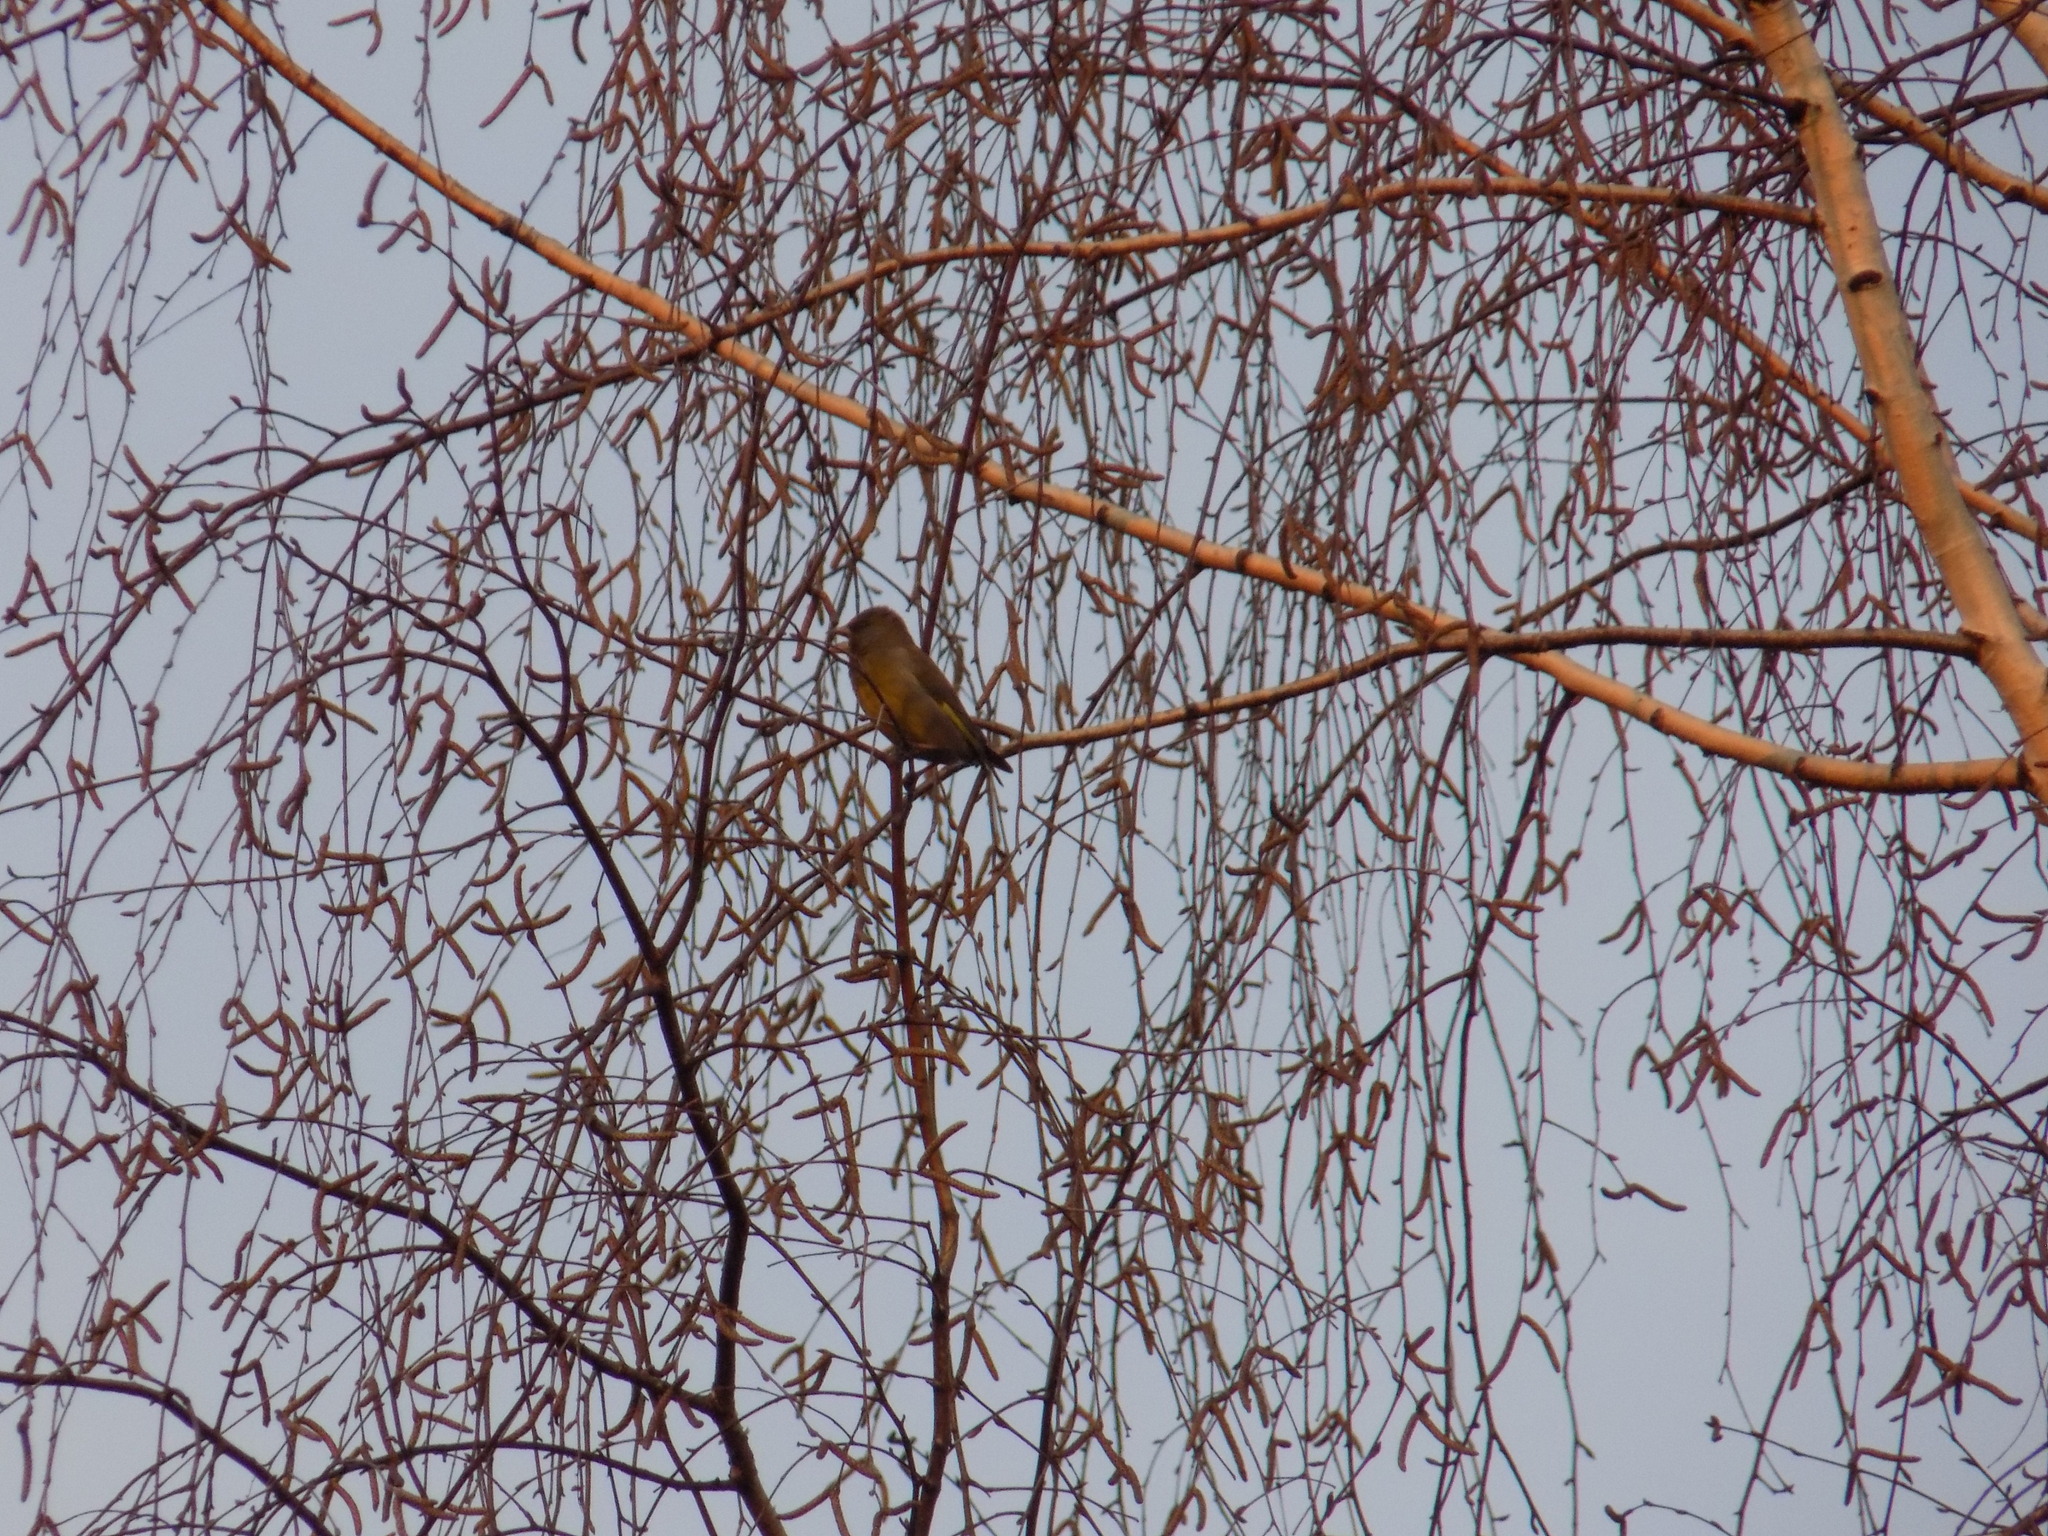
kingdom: Plantae
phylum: Tracheophyta
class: Liliopsida
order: Poales
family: Poaceae
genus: Chloris
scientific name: Chloris chloris
